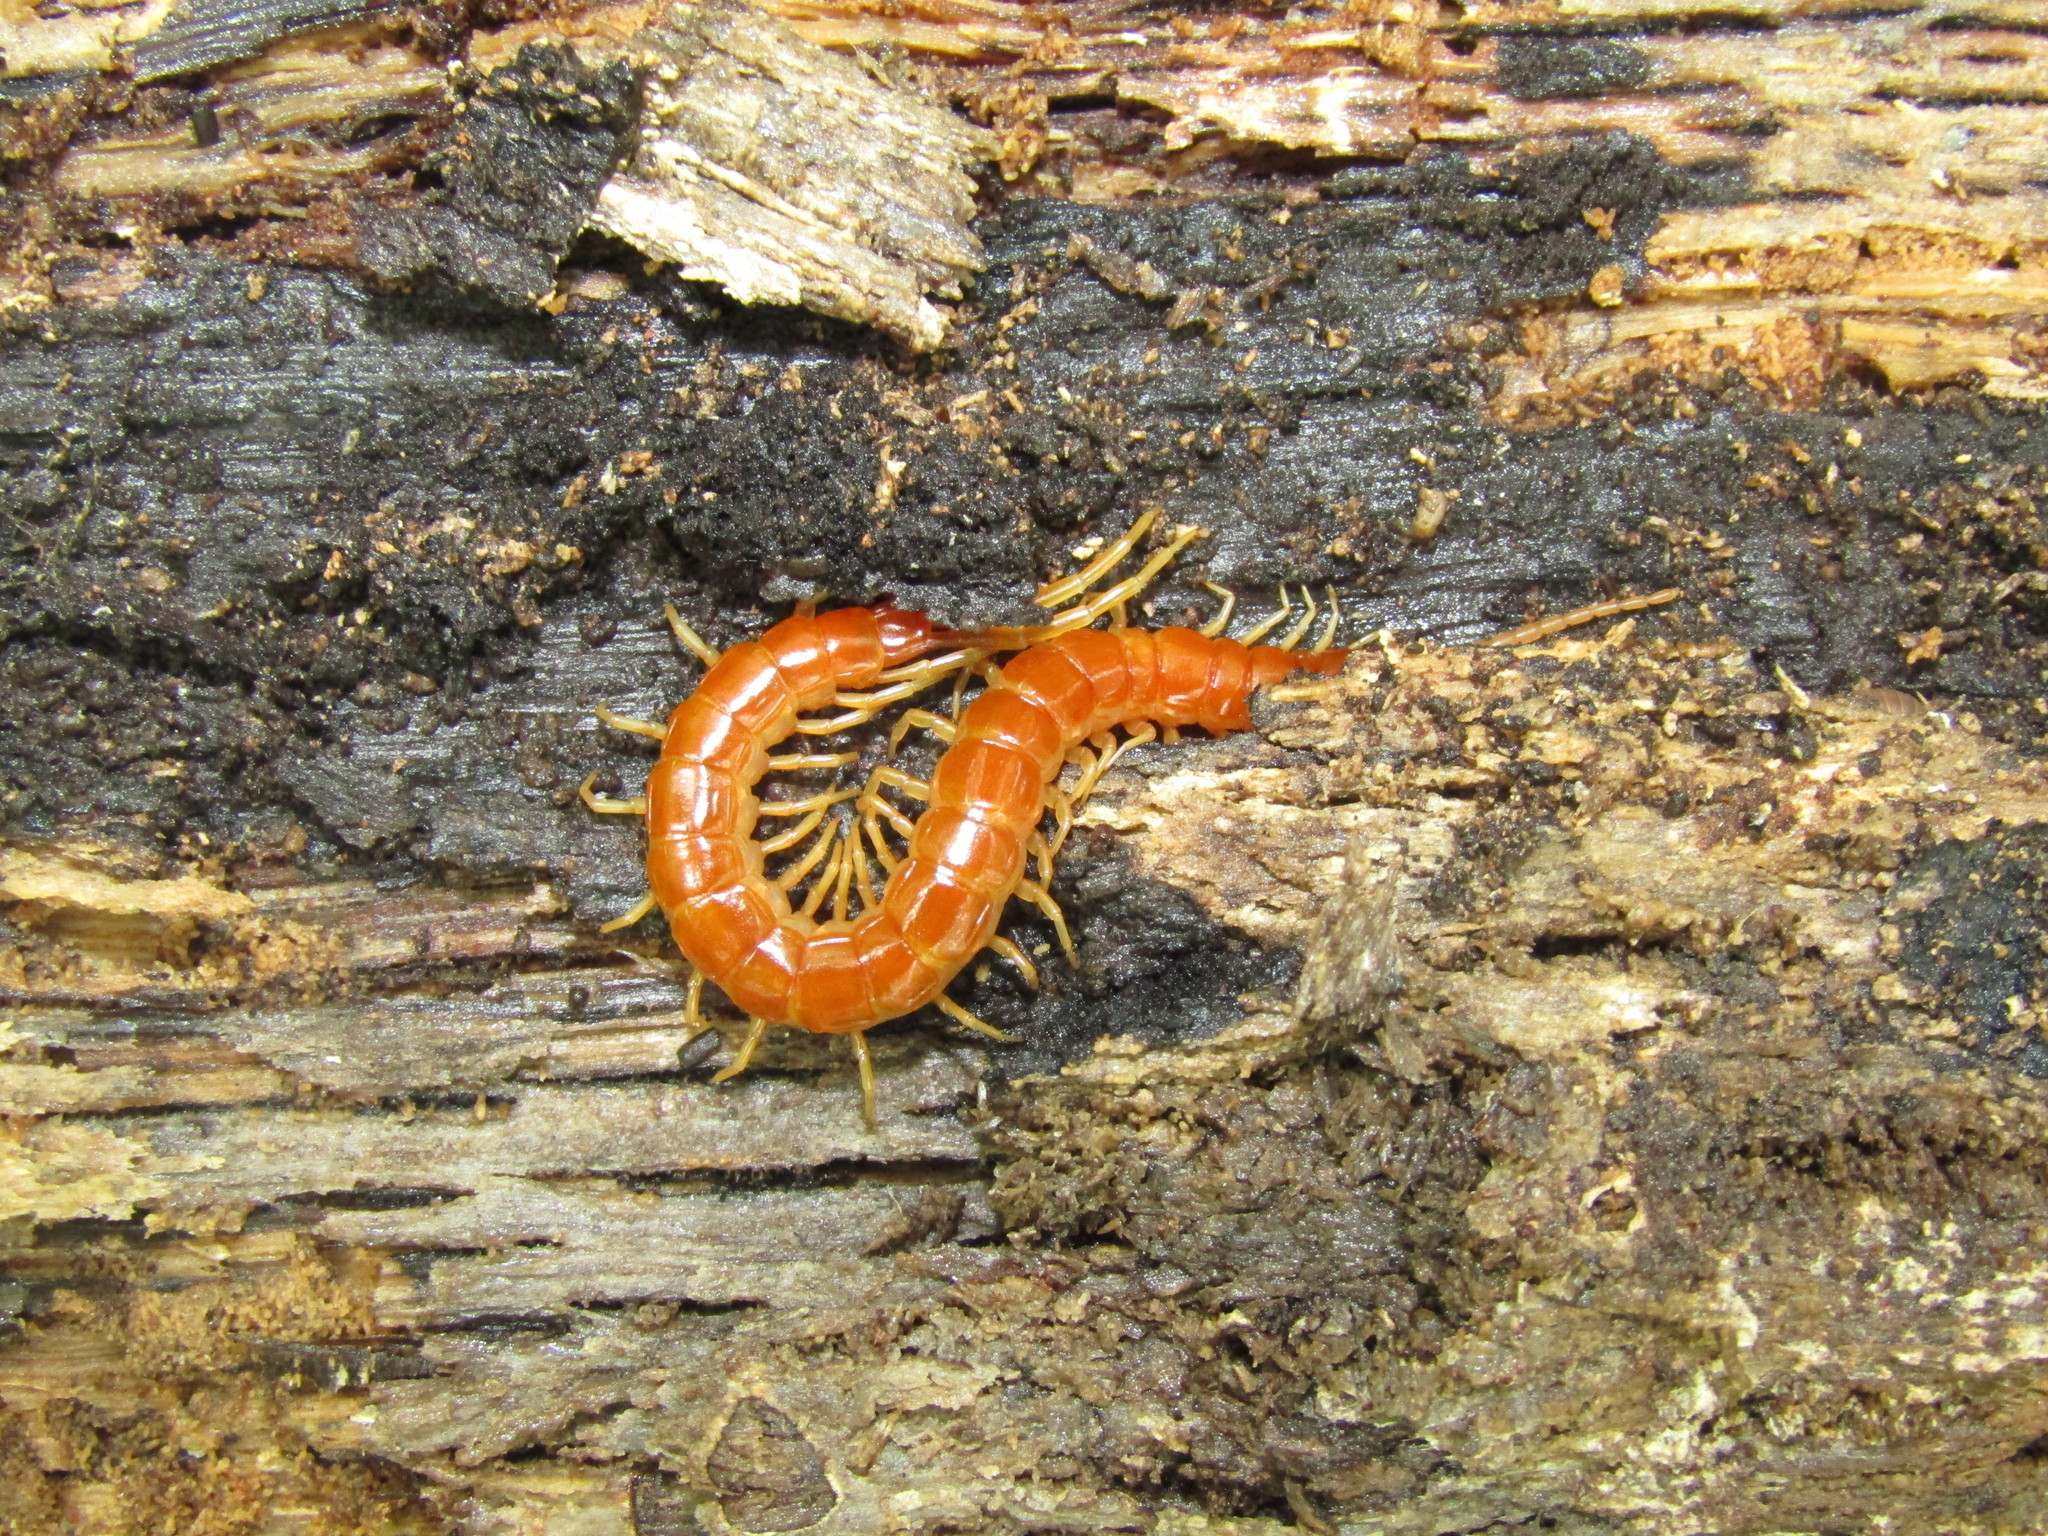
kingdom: Animalia
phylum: Arthropoda
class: Chilopoda
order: Scolopendromorpha
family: Scolopocryptopidae
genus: Scolopocryptops
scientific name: Scolopocryptops sexspinosus
